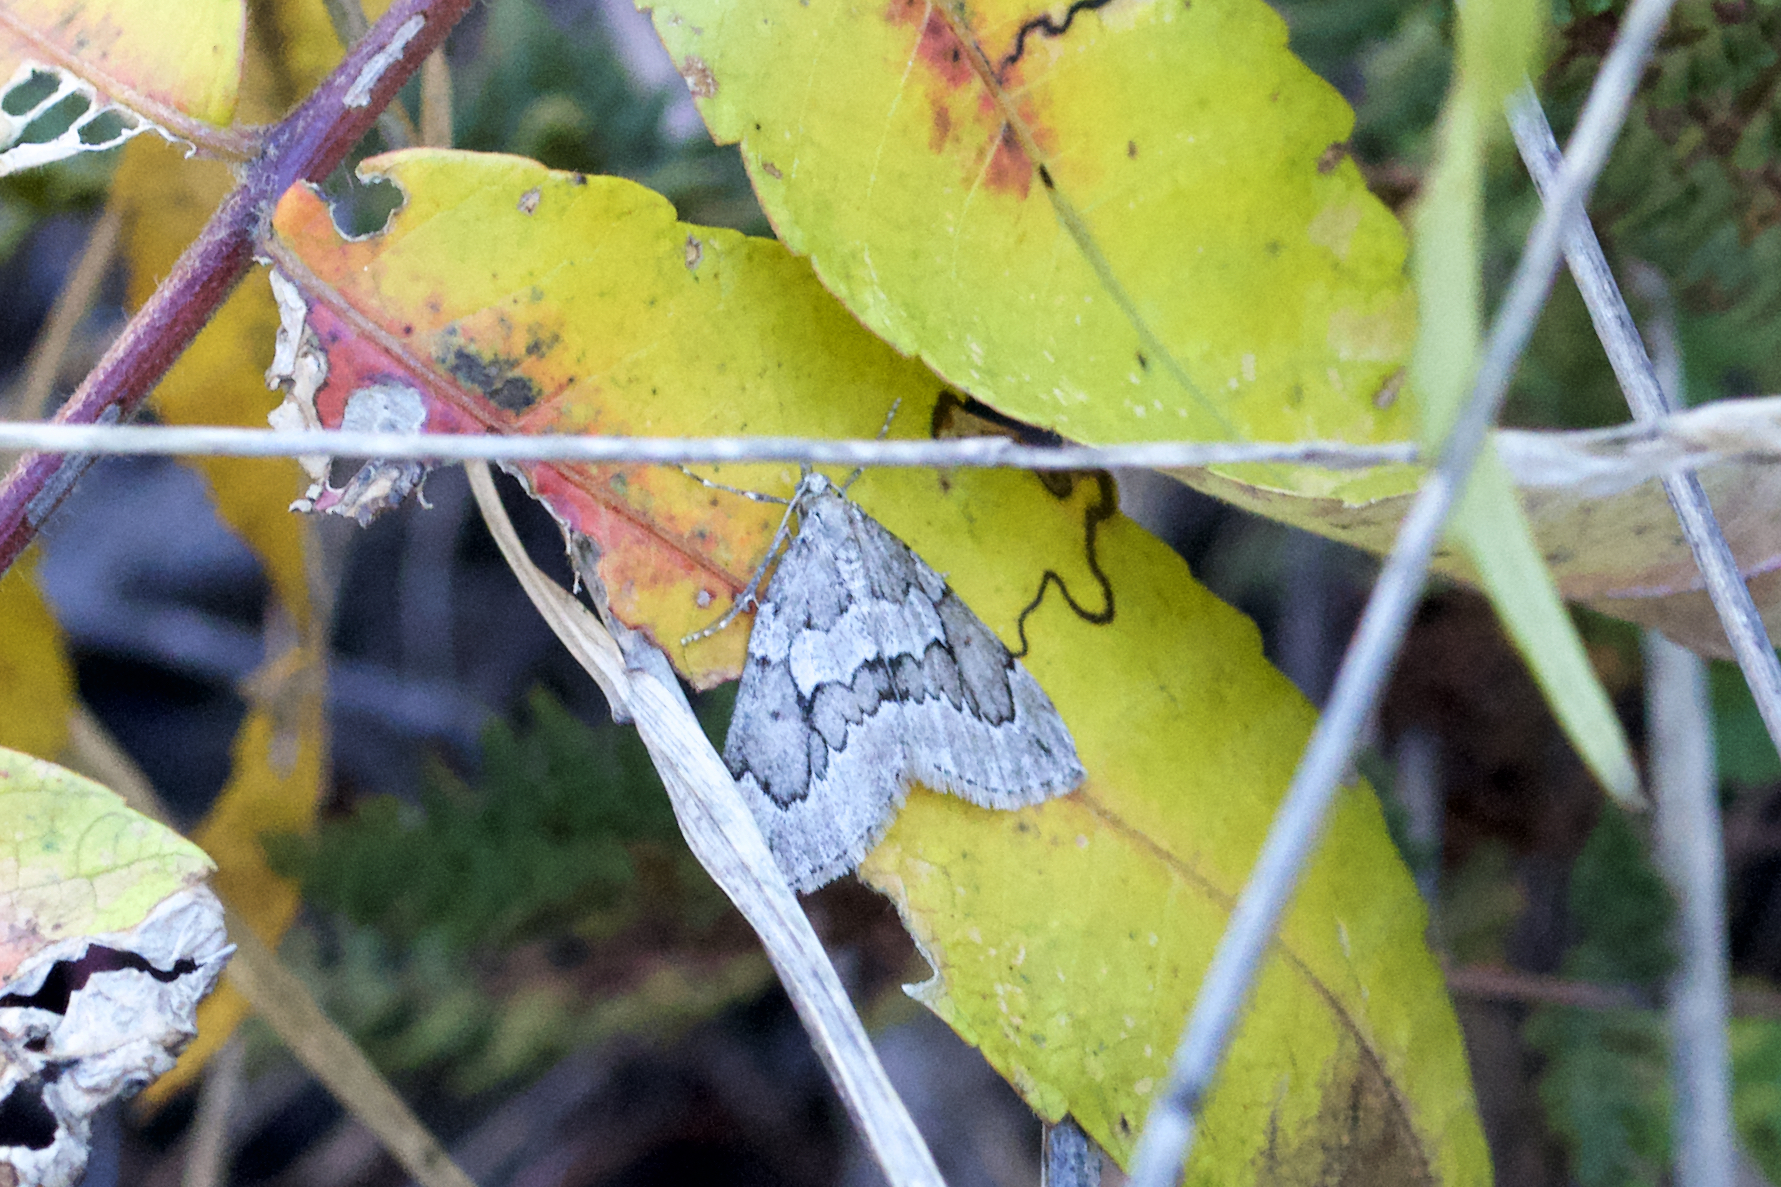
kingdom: Animalia
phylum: Arthropoda
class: Insecta
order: Lepidoptera
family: Geometridae
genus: Thera
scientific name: Thera juniperata
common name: Juniper carpet
